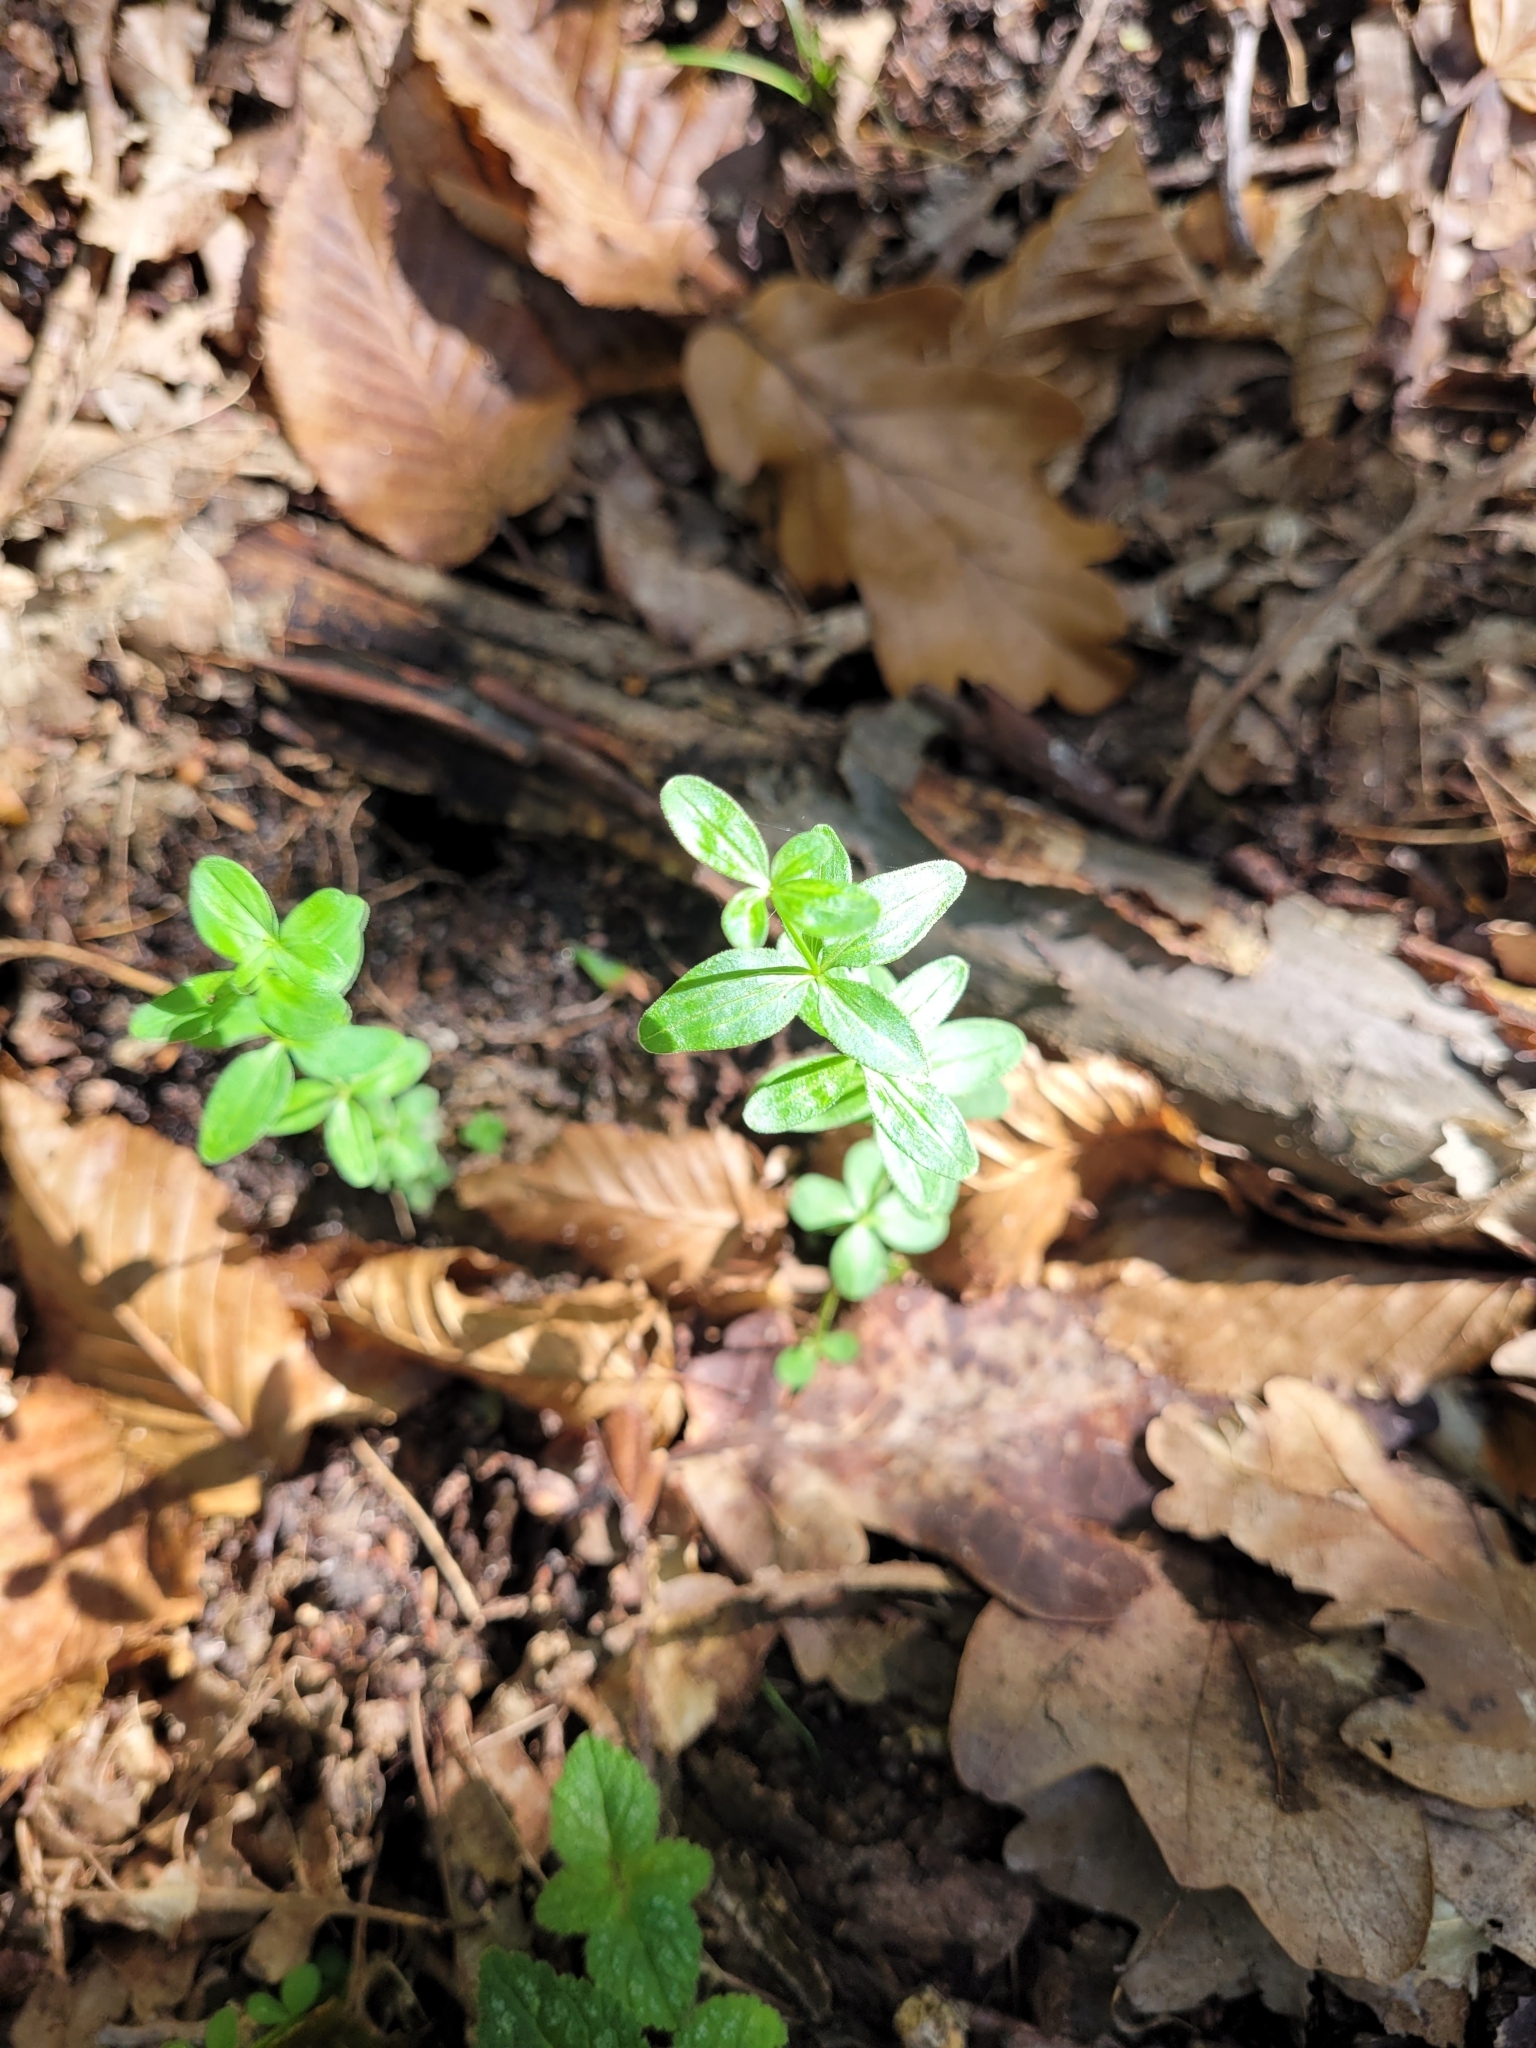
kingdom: Plantae
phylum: Tracheophyta
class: Magnoliopsida
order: Gentianales
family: Rubiaceae
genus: Cruciata
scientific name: Cruciata glabra
